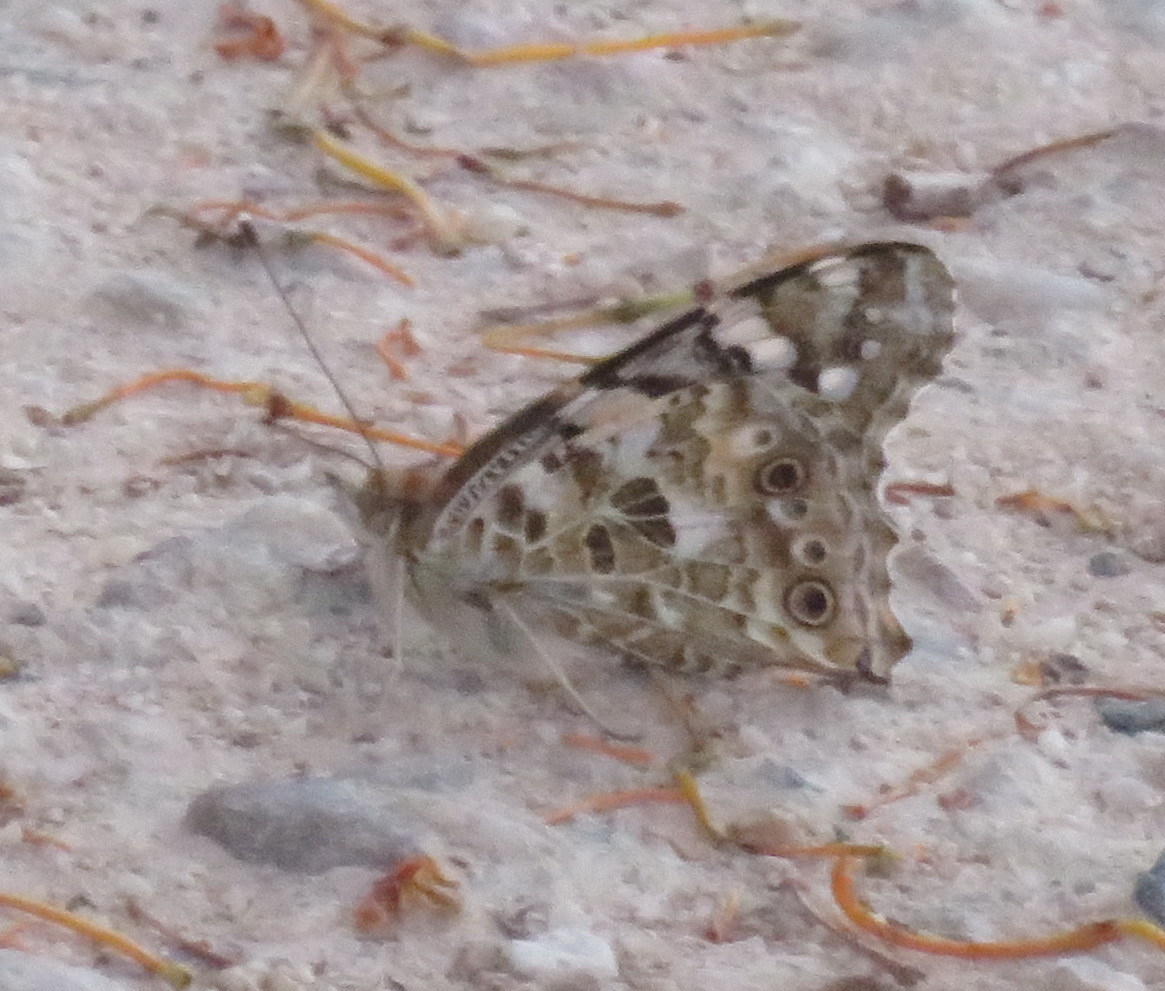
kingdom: Animalia
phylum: Arthropoda
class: Insecta
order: Lepidoptera
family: Nymphalidae
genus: Vanessa
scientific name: Vanessa cardui
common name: Painted lady
